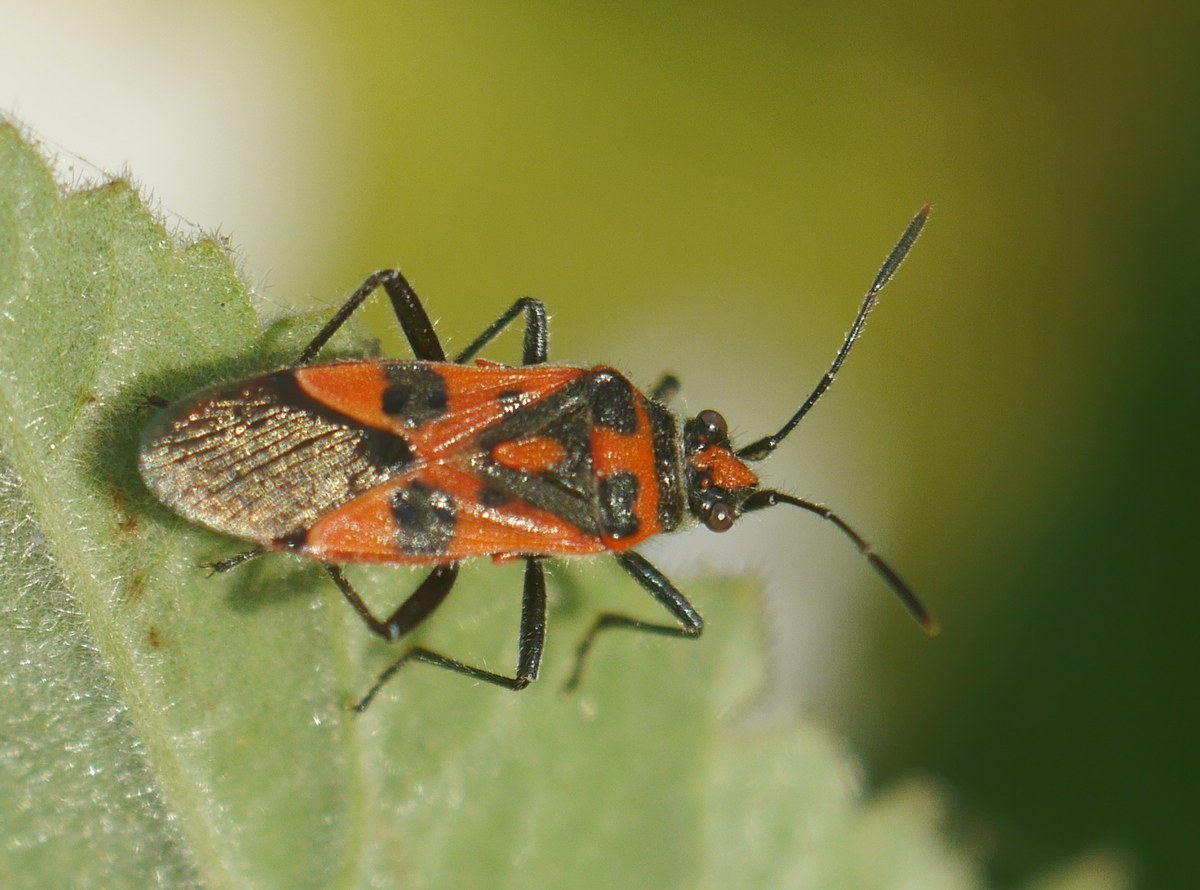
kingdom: Animalia
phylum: Arthropoda
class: Insecta
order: Hemiptera
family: Rhopalidae
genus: Corizus
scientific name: Corizus hyoscyami
